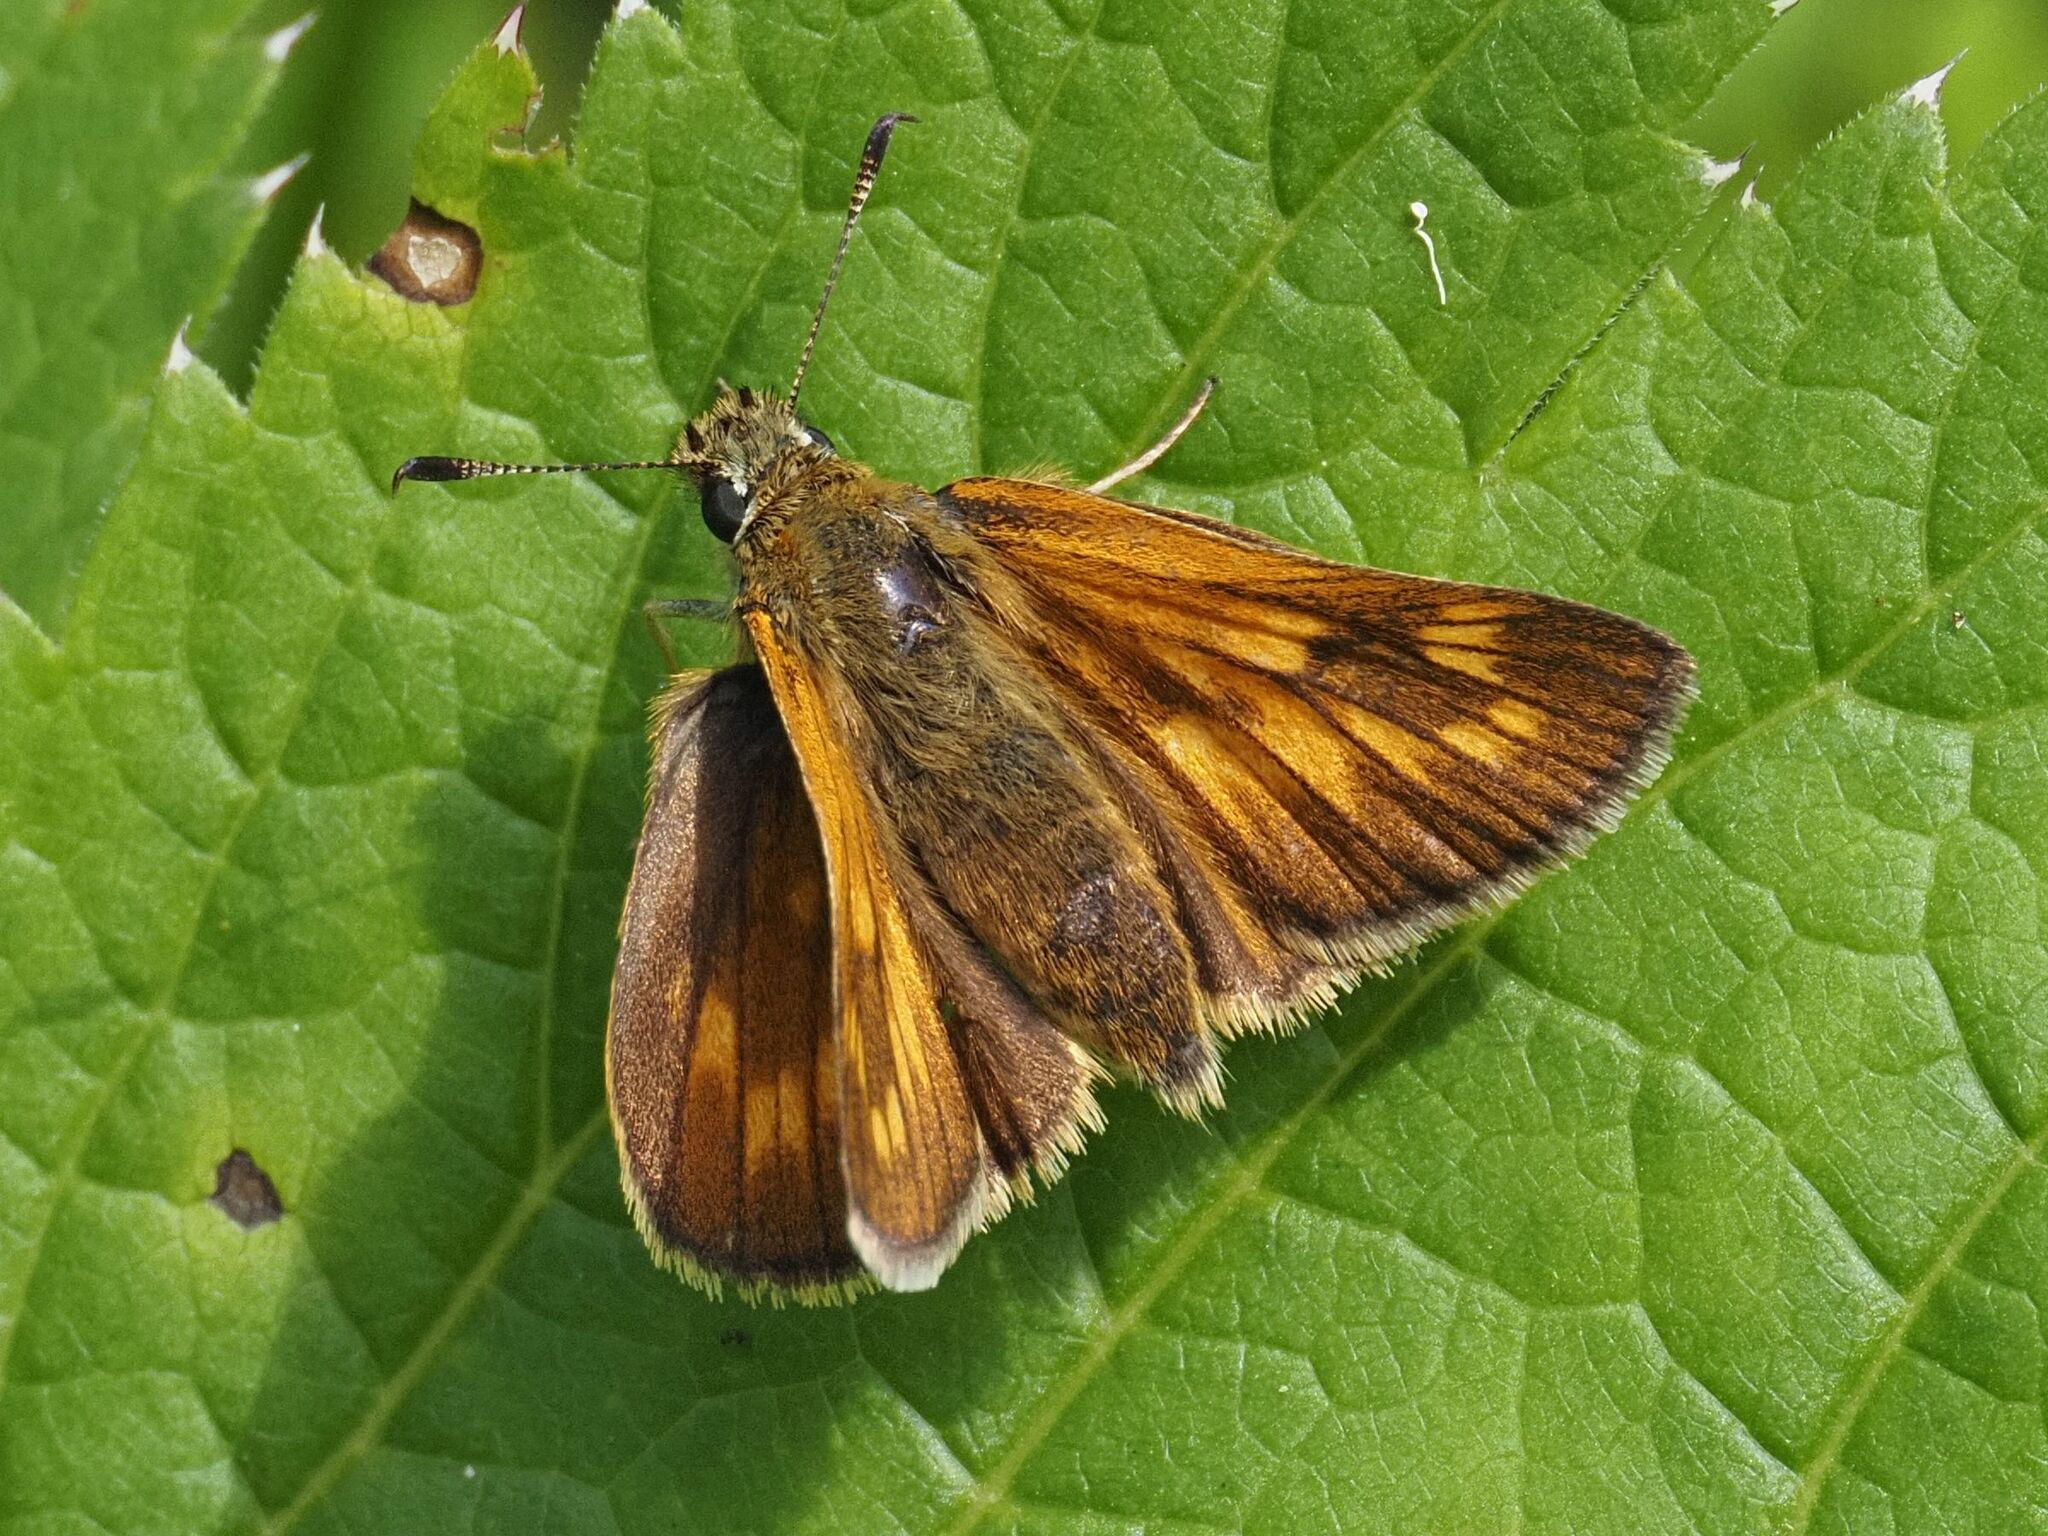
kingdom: Animalia
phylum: Arthropoda
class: Insecta
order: Lepidoptera
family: Hesperiidae
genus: Ochlodes
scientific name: Ochlodes venata
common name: Large skipper
